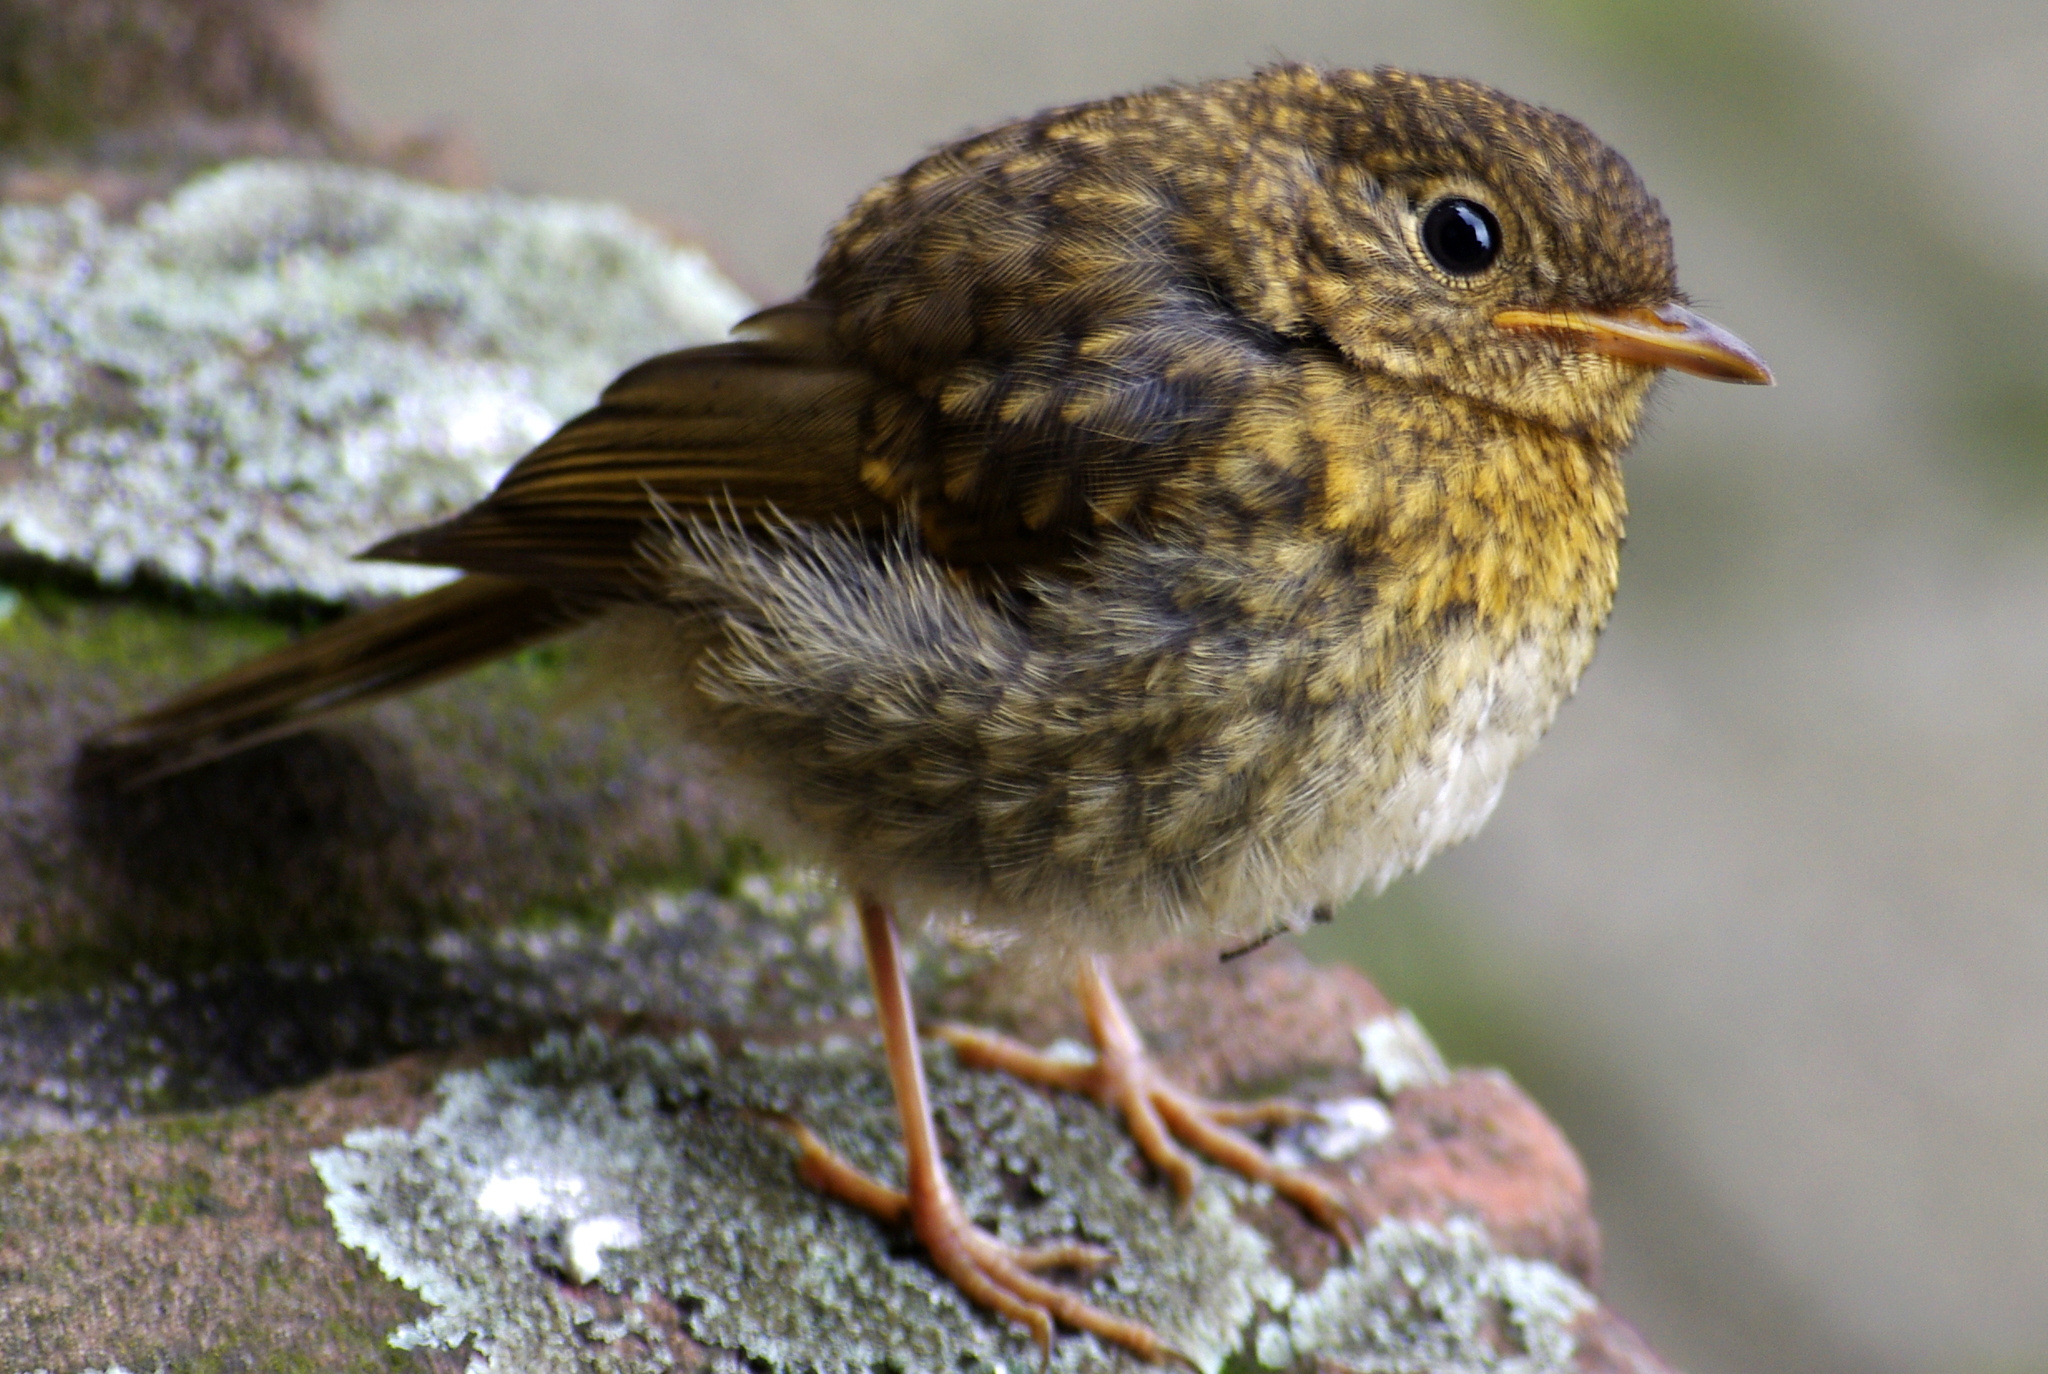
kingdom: Animalia
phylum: Chordata
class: Aves
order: Passeriformes
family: Muscicapidae
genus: Erithacus
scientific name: Erithacus rubecula
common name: European robin
